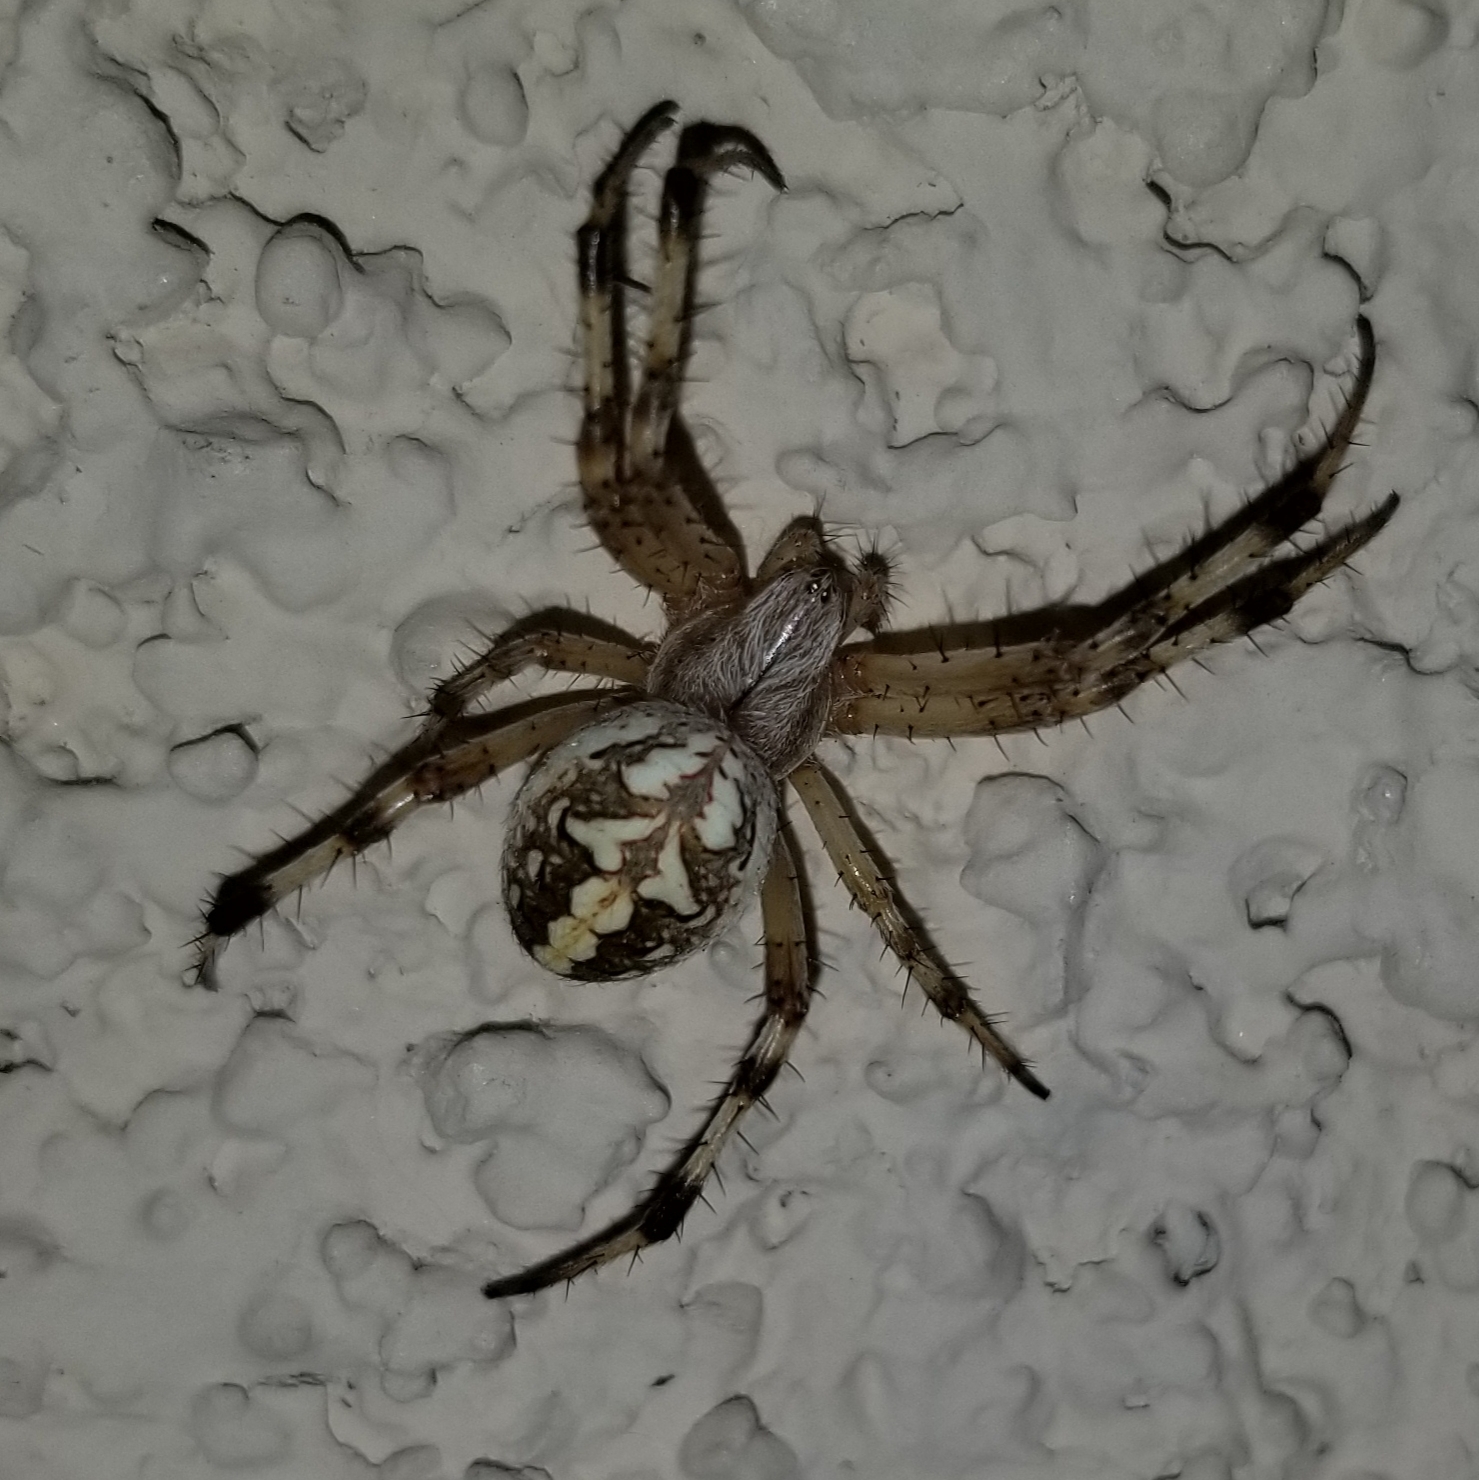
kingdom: Animalia
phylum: Arthropoda
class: Arachnida
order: Araneae
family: Araneidae
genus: Neoscona
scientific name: Neoscona oaxacensis
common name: Orb weavers
